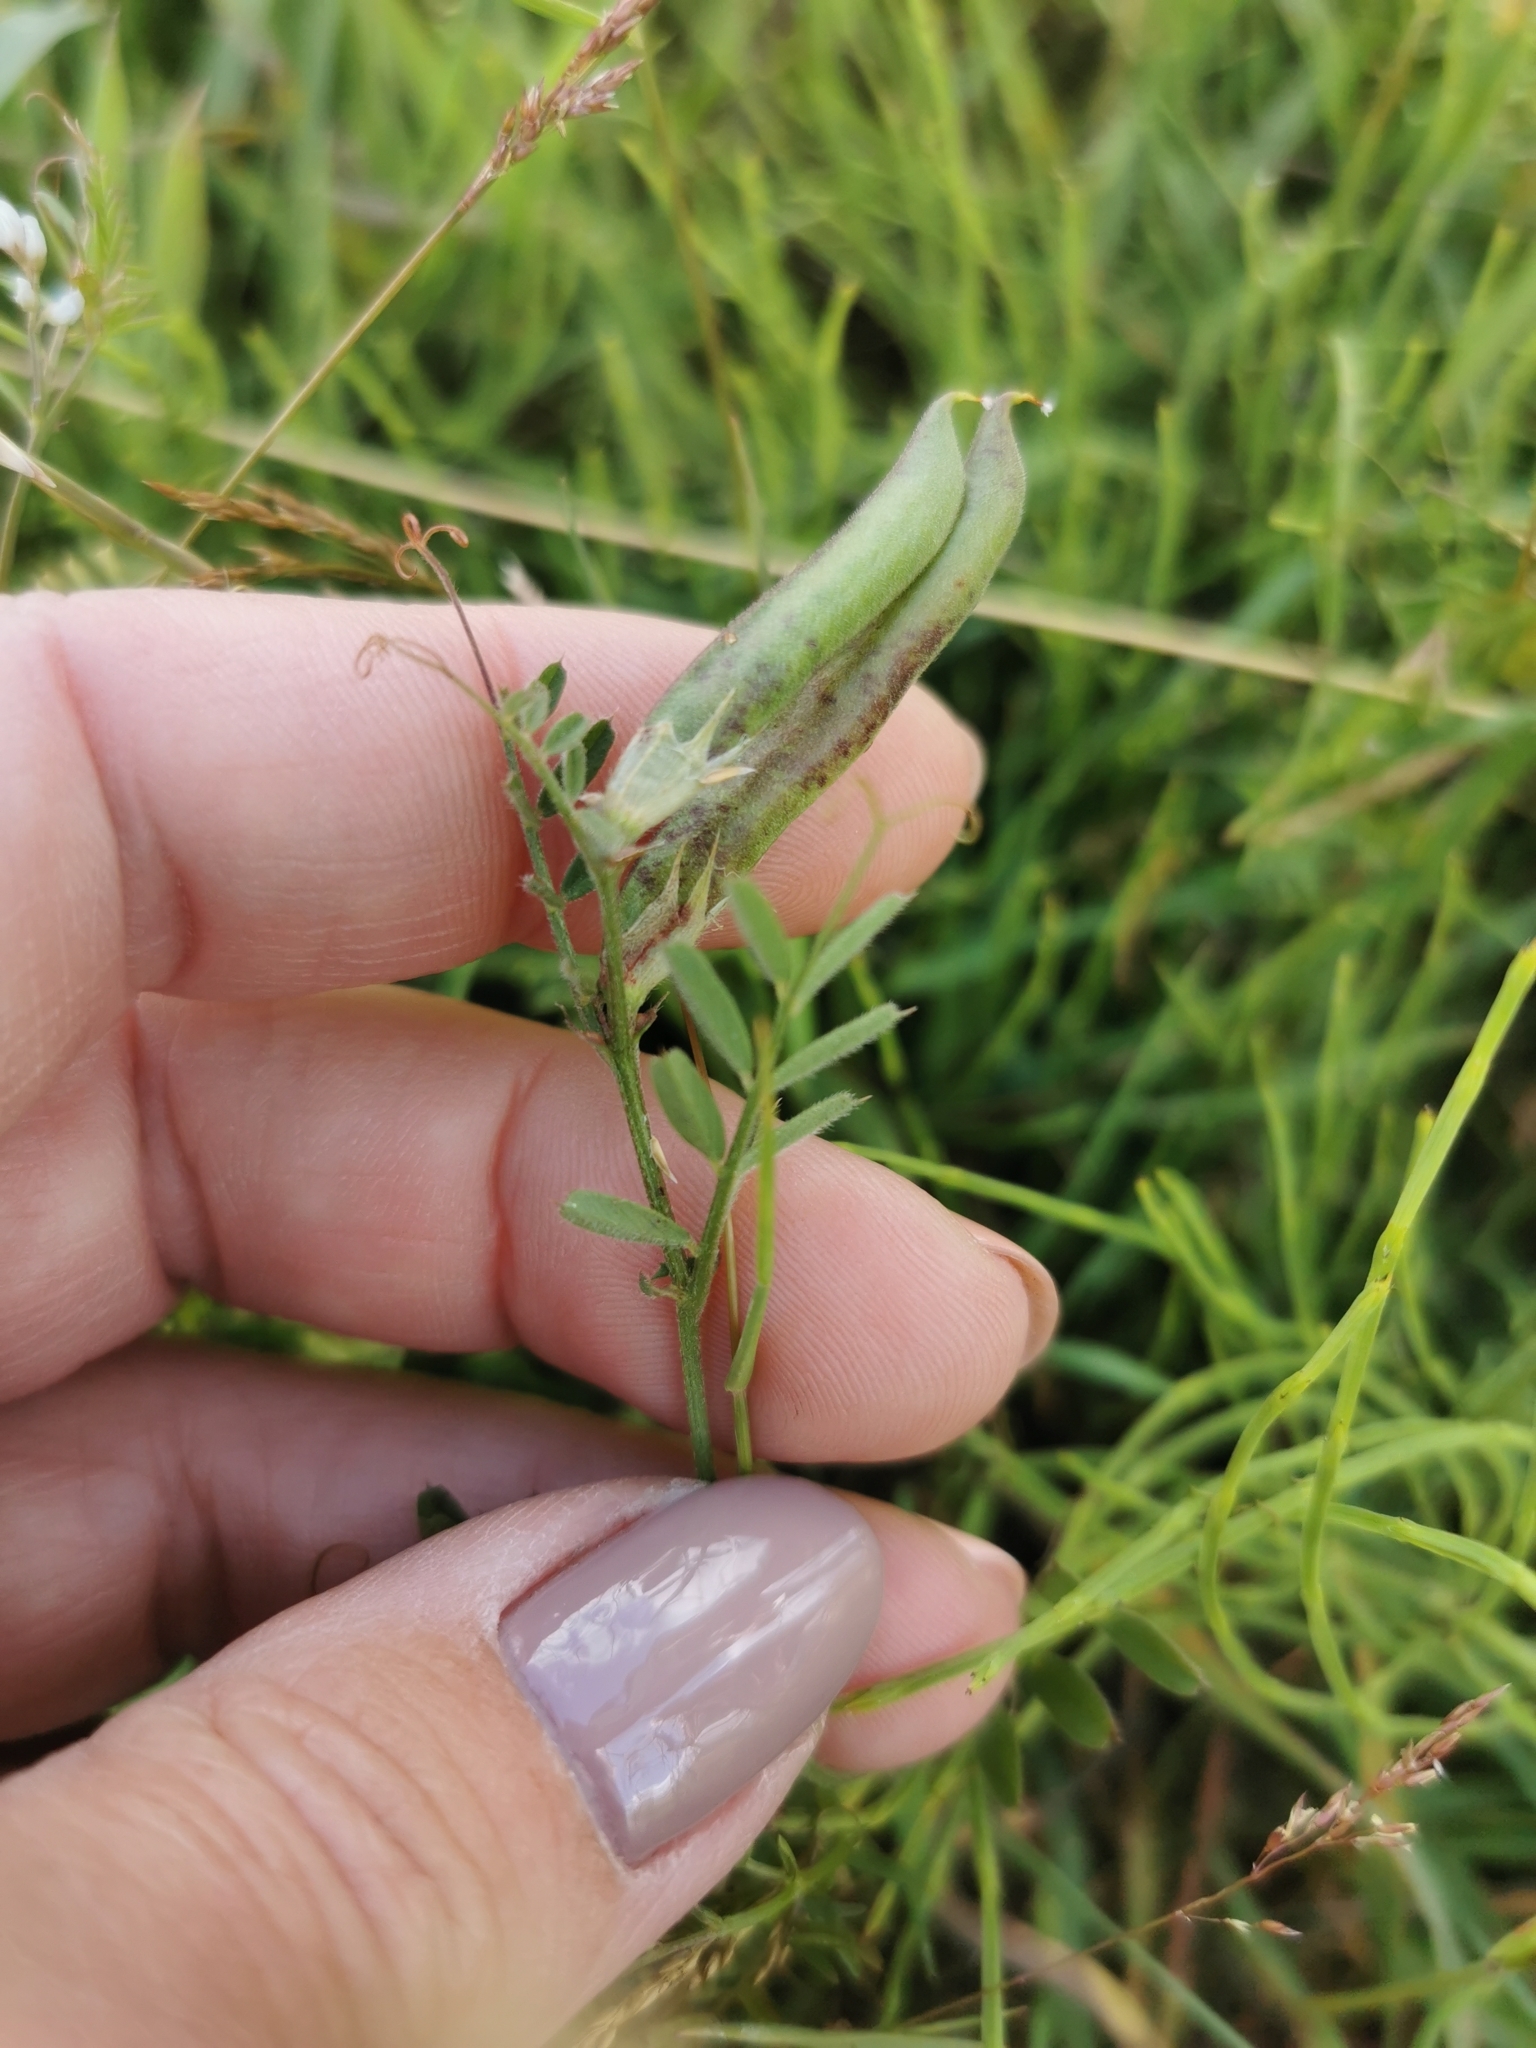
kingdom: Plantae
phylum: Tracheophyta
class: Magnoliopsida
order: Fabales
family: Fabaceae
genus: Vicia
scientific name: Vicia sativa
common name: Garden vetch
